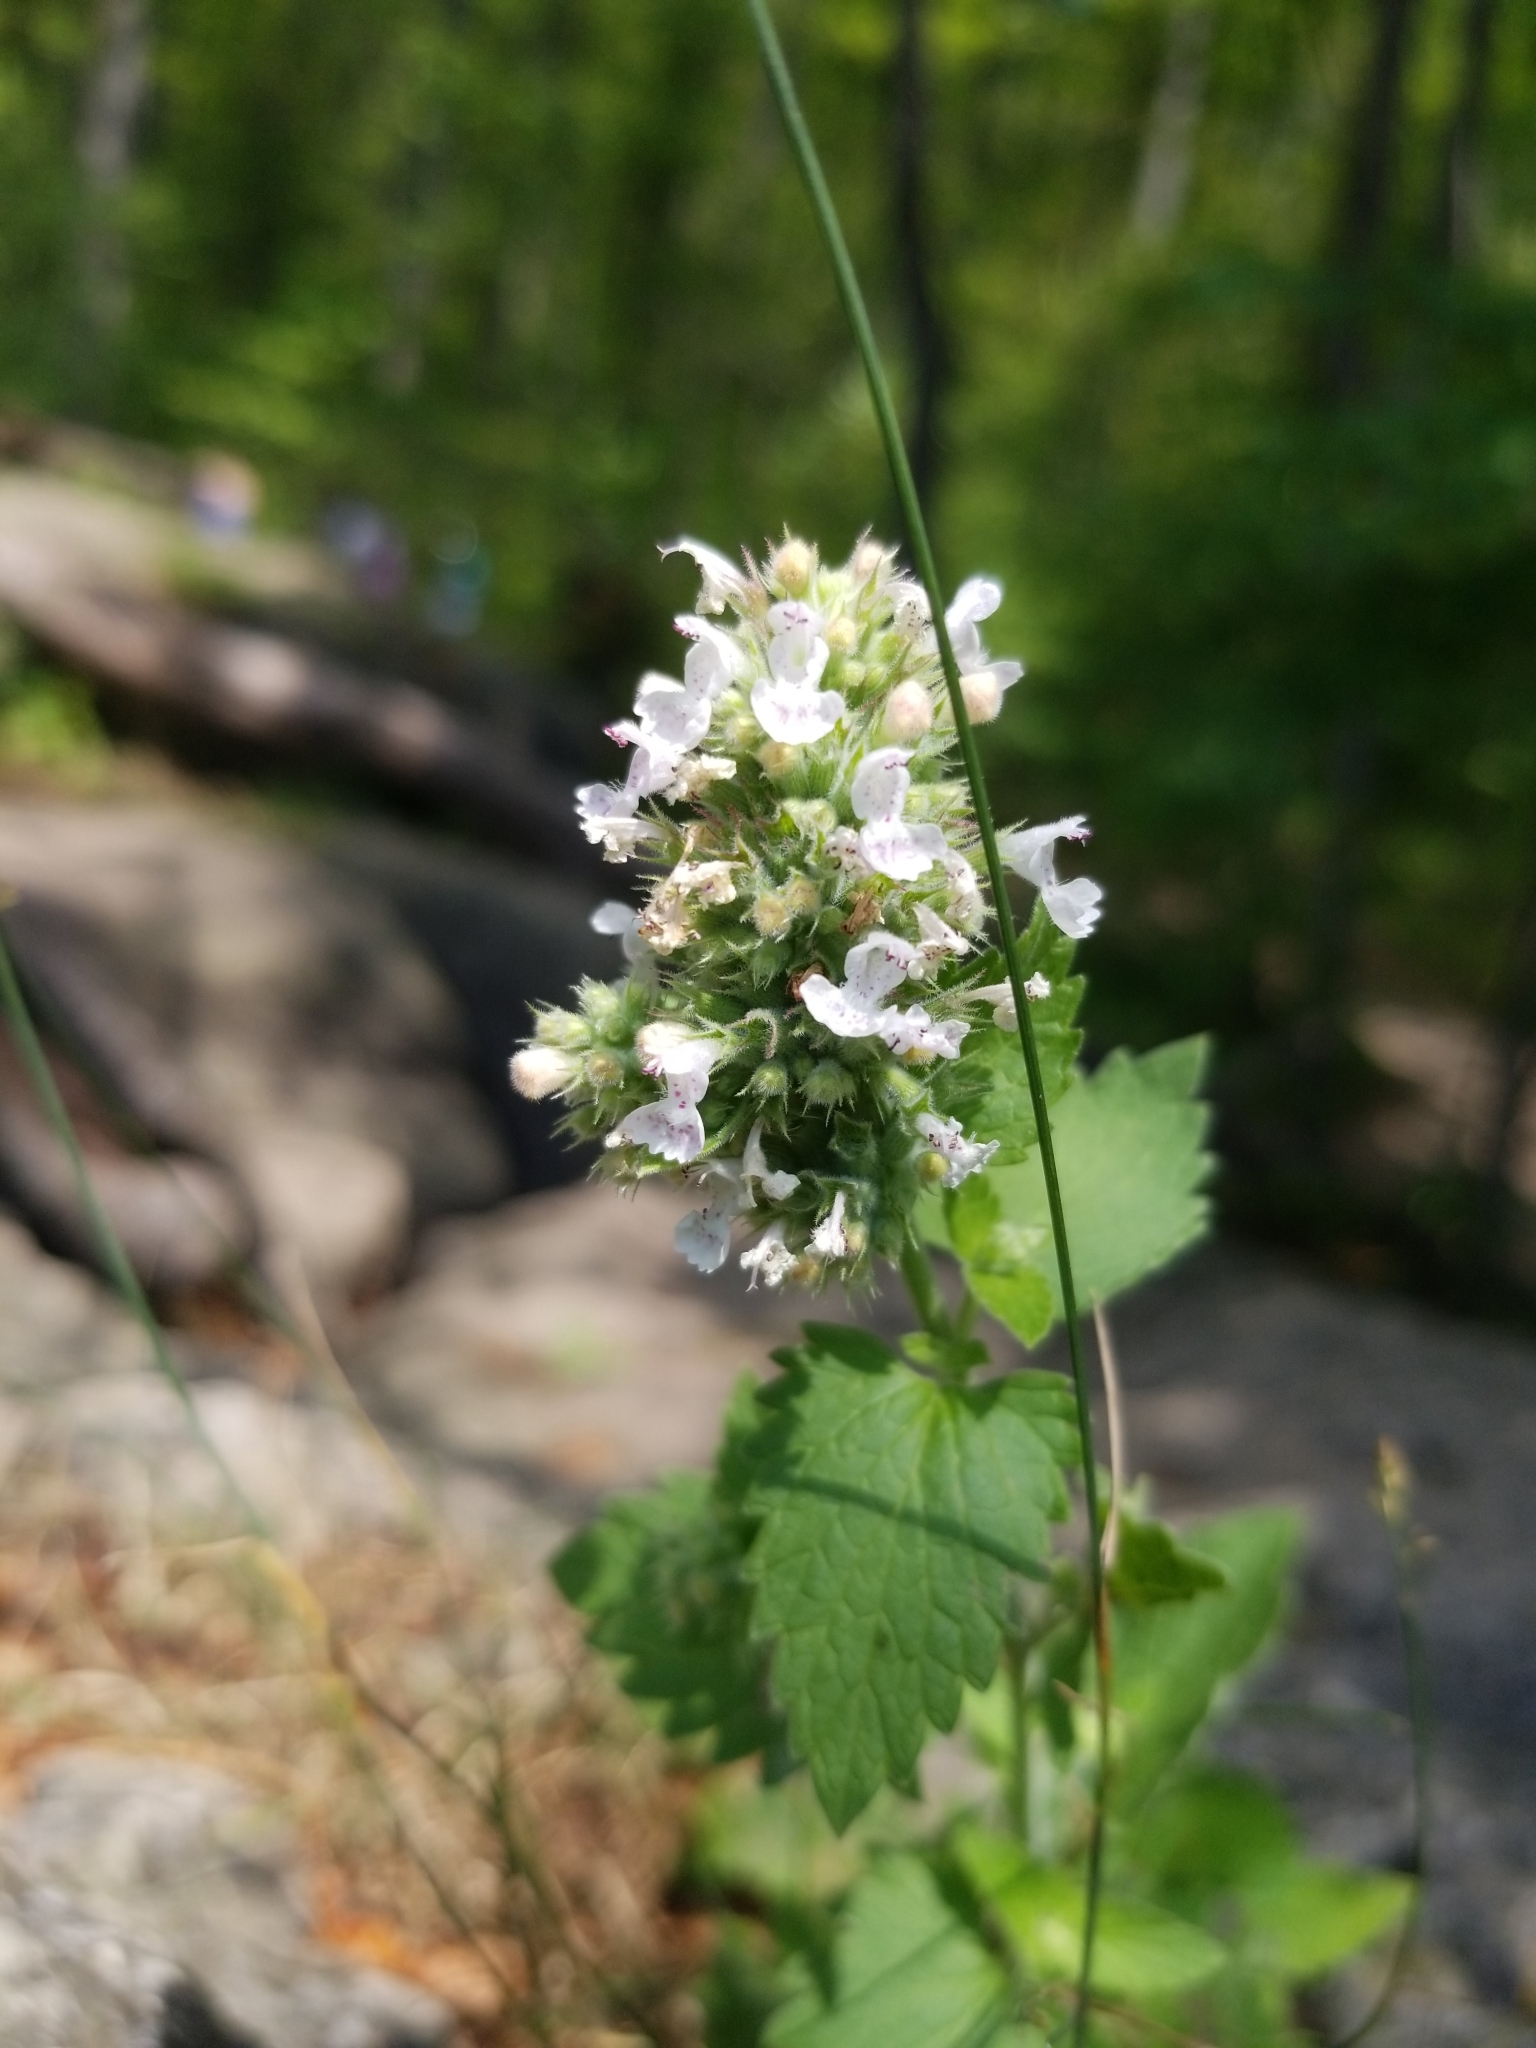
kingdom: Plantae
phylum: Tracheophyta
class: Magnoliopsida
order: Lamiales
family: Lamiaceae
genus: Nepeta
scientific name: Nepeta cataria
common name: Catnip
